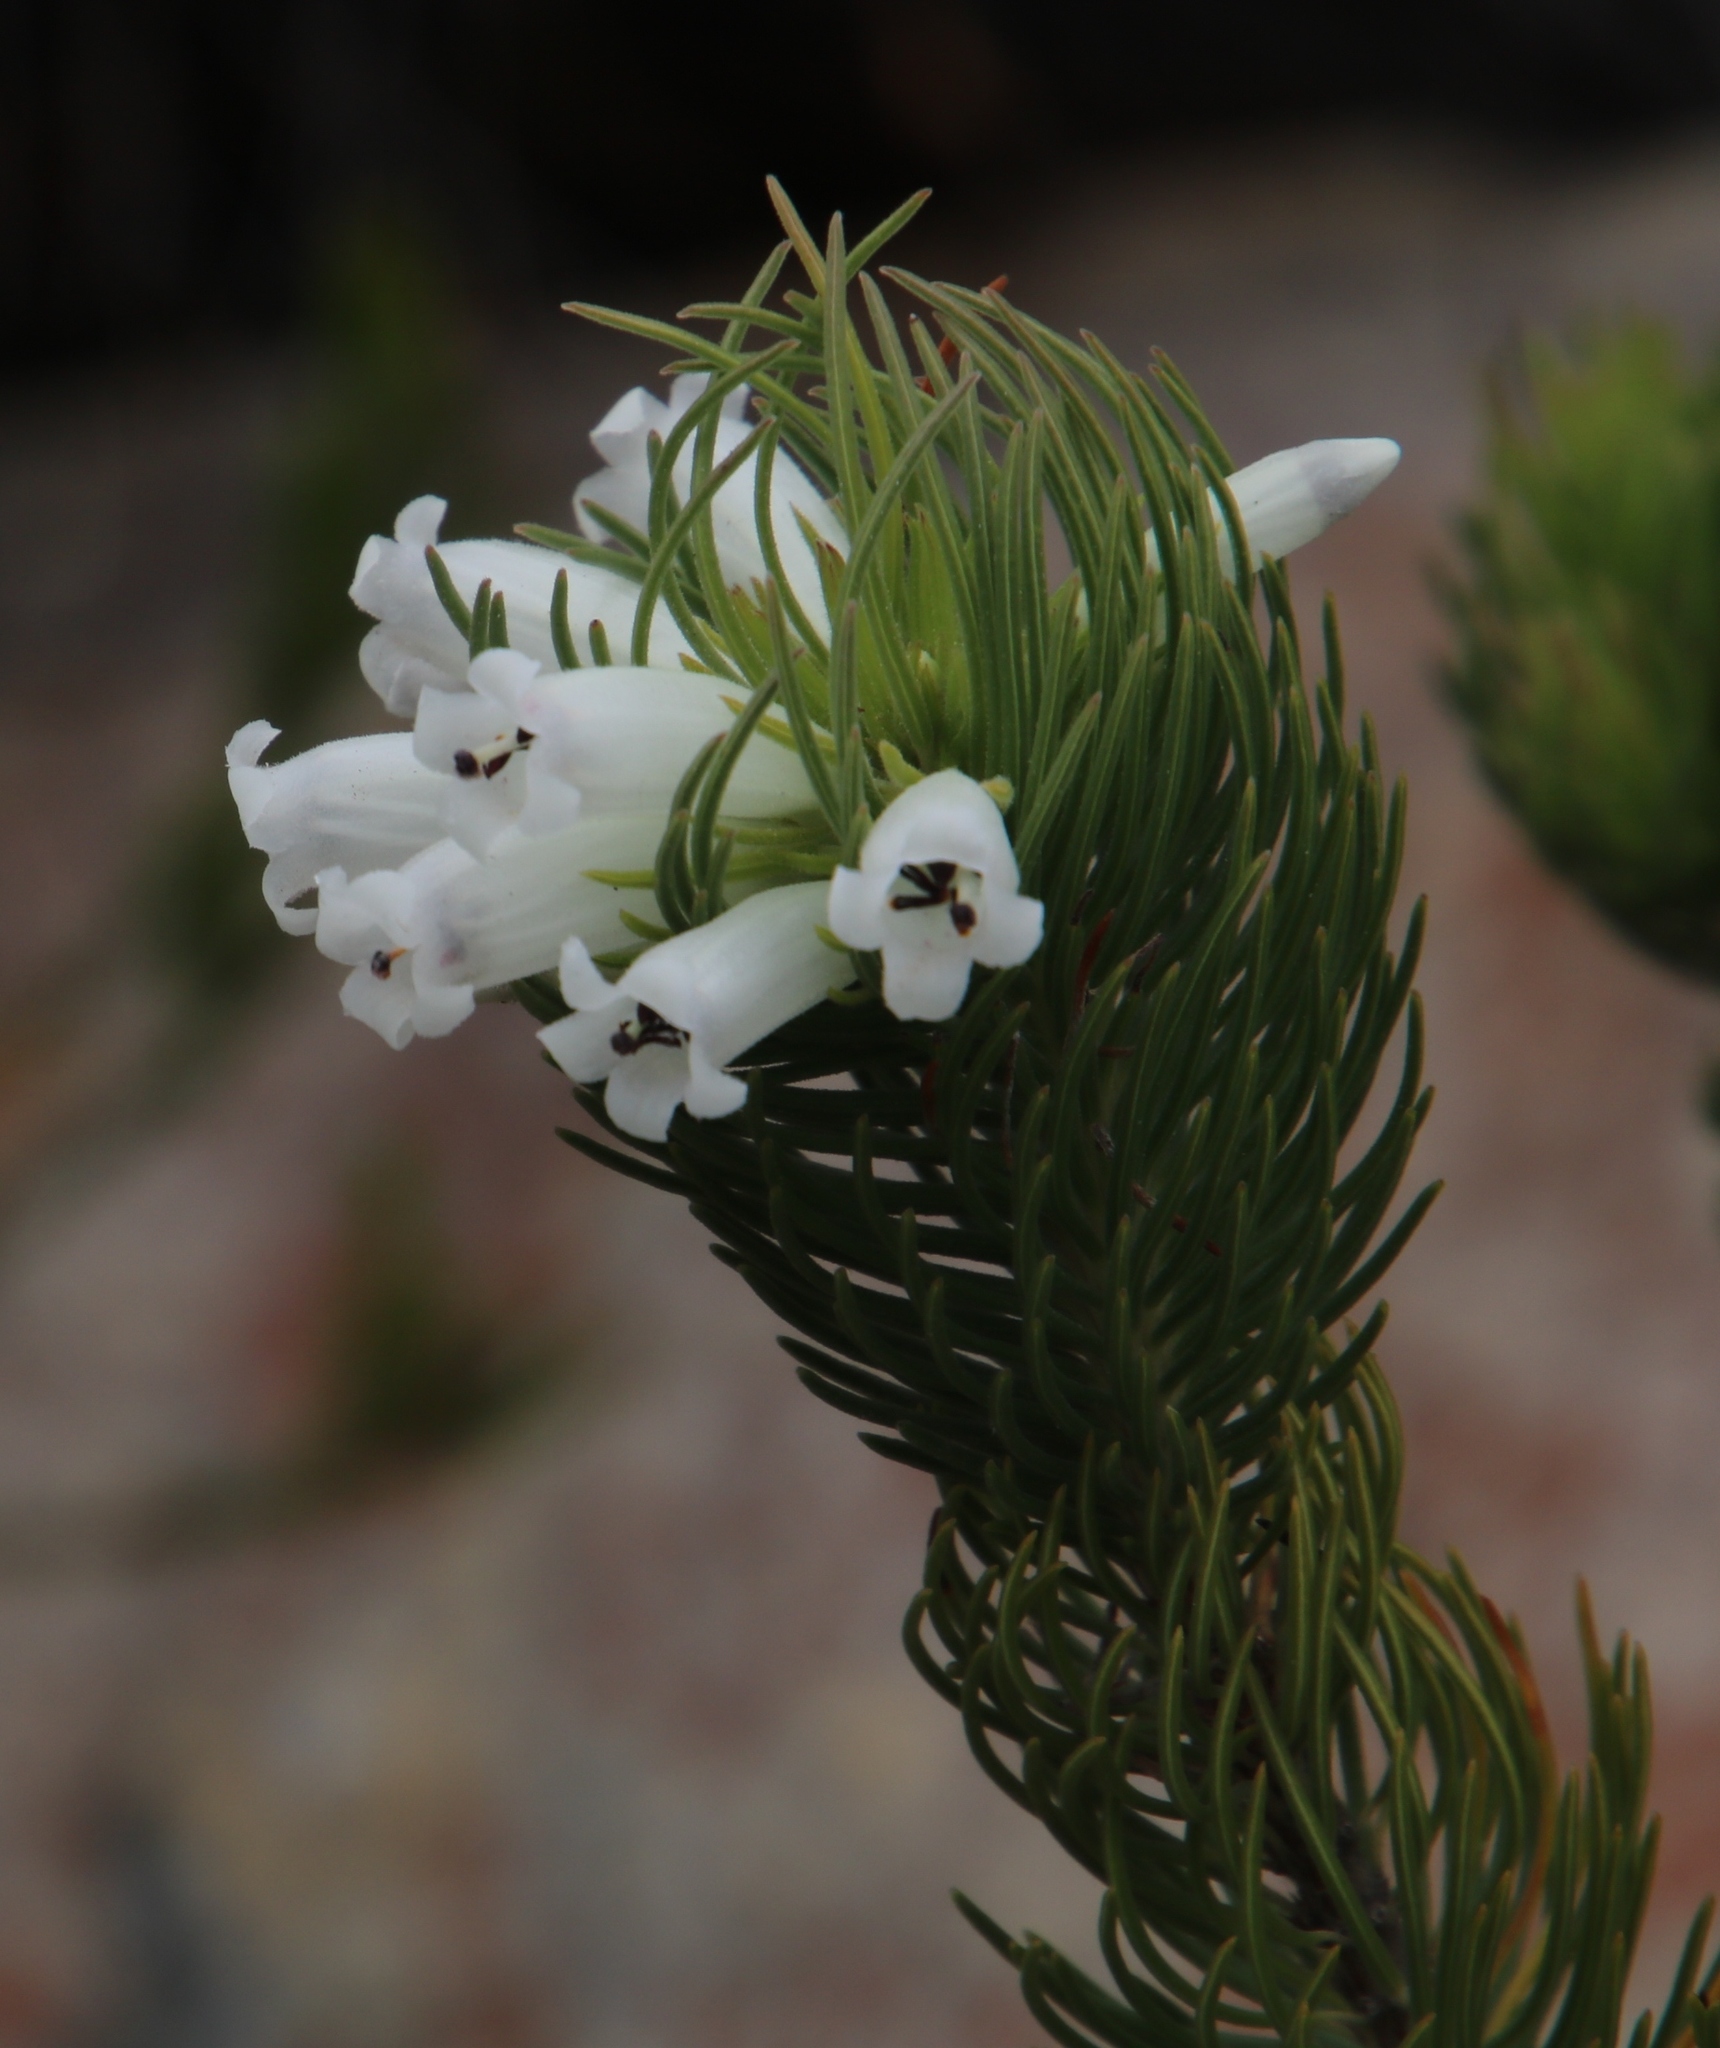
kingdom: Plantae
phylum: Tracheophyta
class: Magnoliopsida
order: Ericales
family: Ericaceae
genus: Erica
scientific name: Erica viscaria
